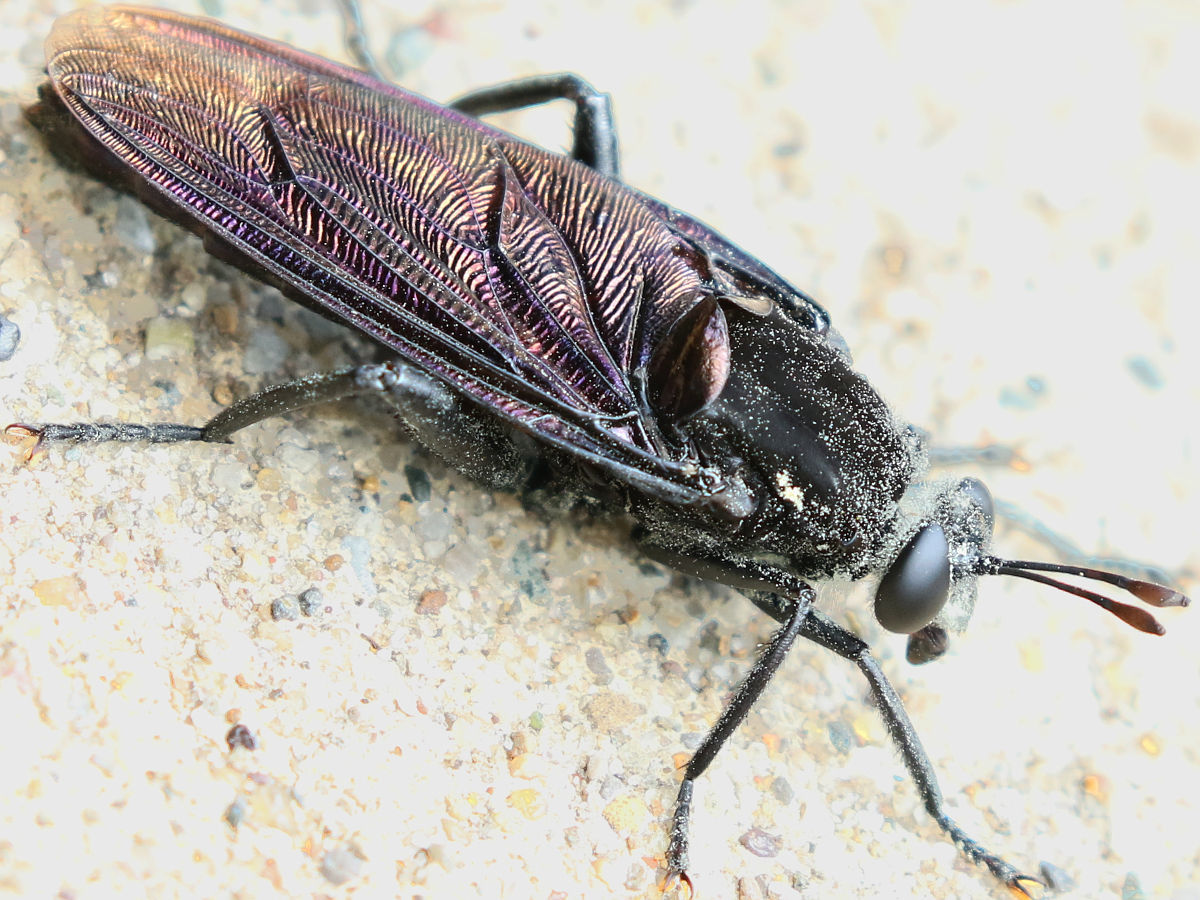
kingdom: Animalia
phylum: Arthropoda
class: Insecta
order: Diptera
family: Mydidae
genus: Mydas
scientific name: Mydas clavatus
